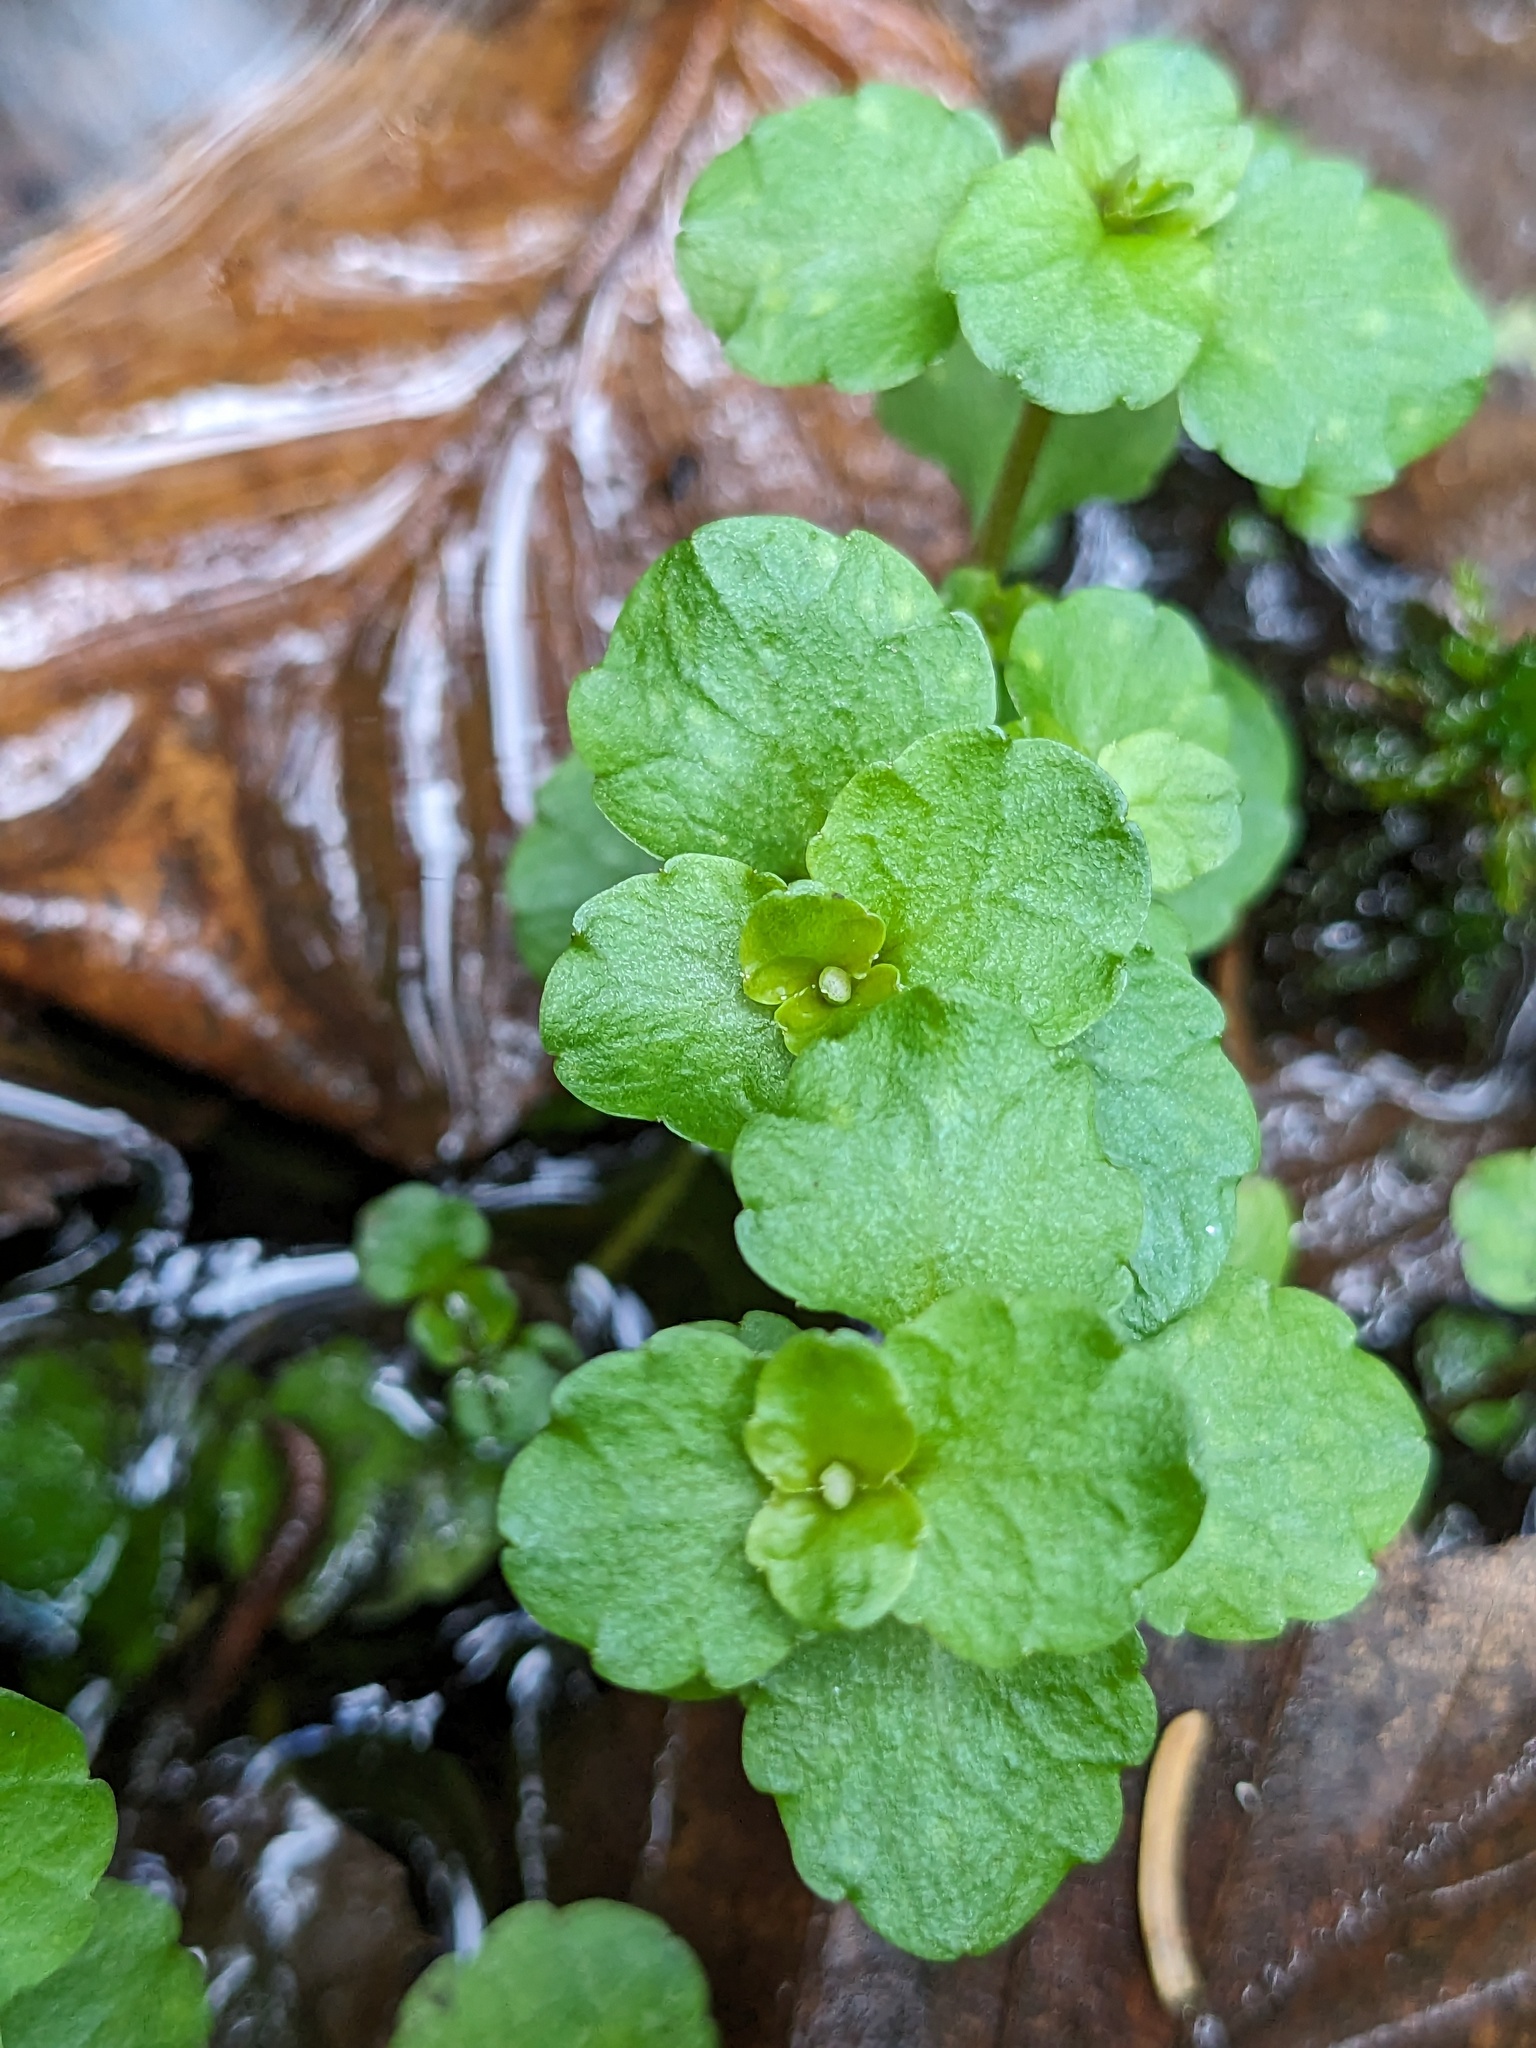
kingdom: Plantae
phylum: Tracheophyta
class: Magnoliopsida
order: Saxifragales
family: Saxifragaceae
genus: Chrysosplenium
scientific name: Chrysosplenium americanum
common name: American golden-saxifrage
